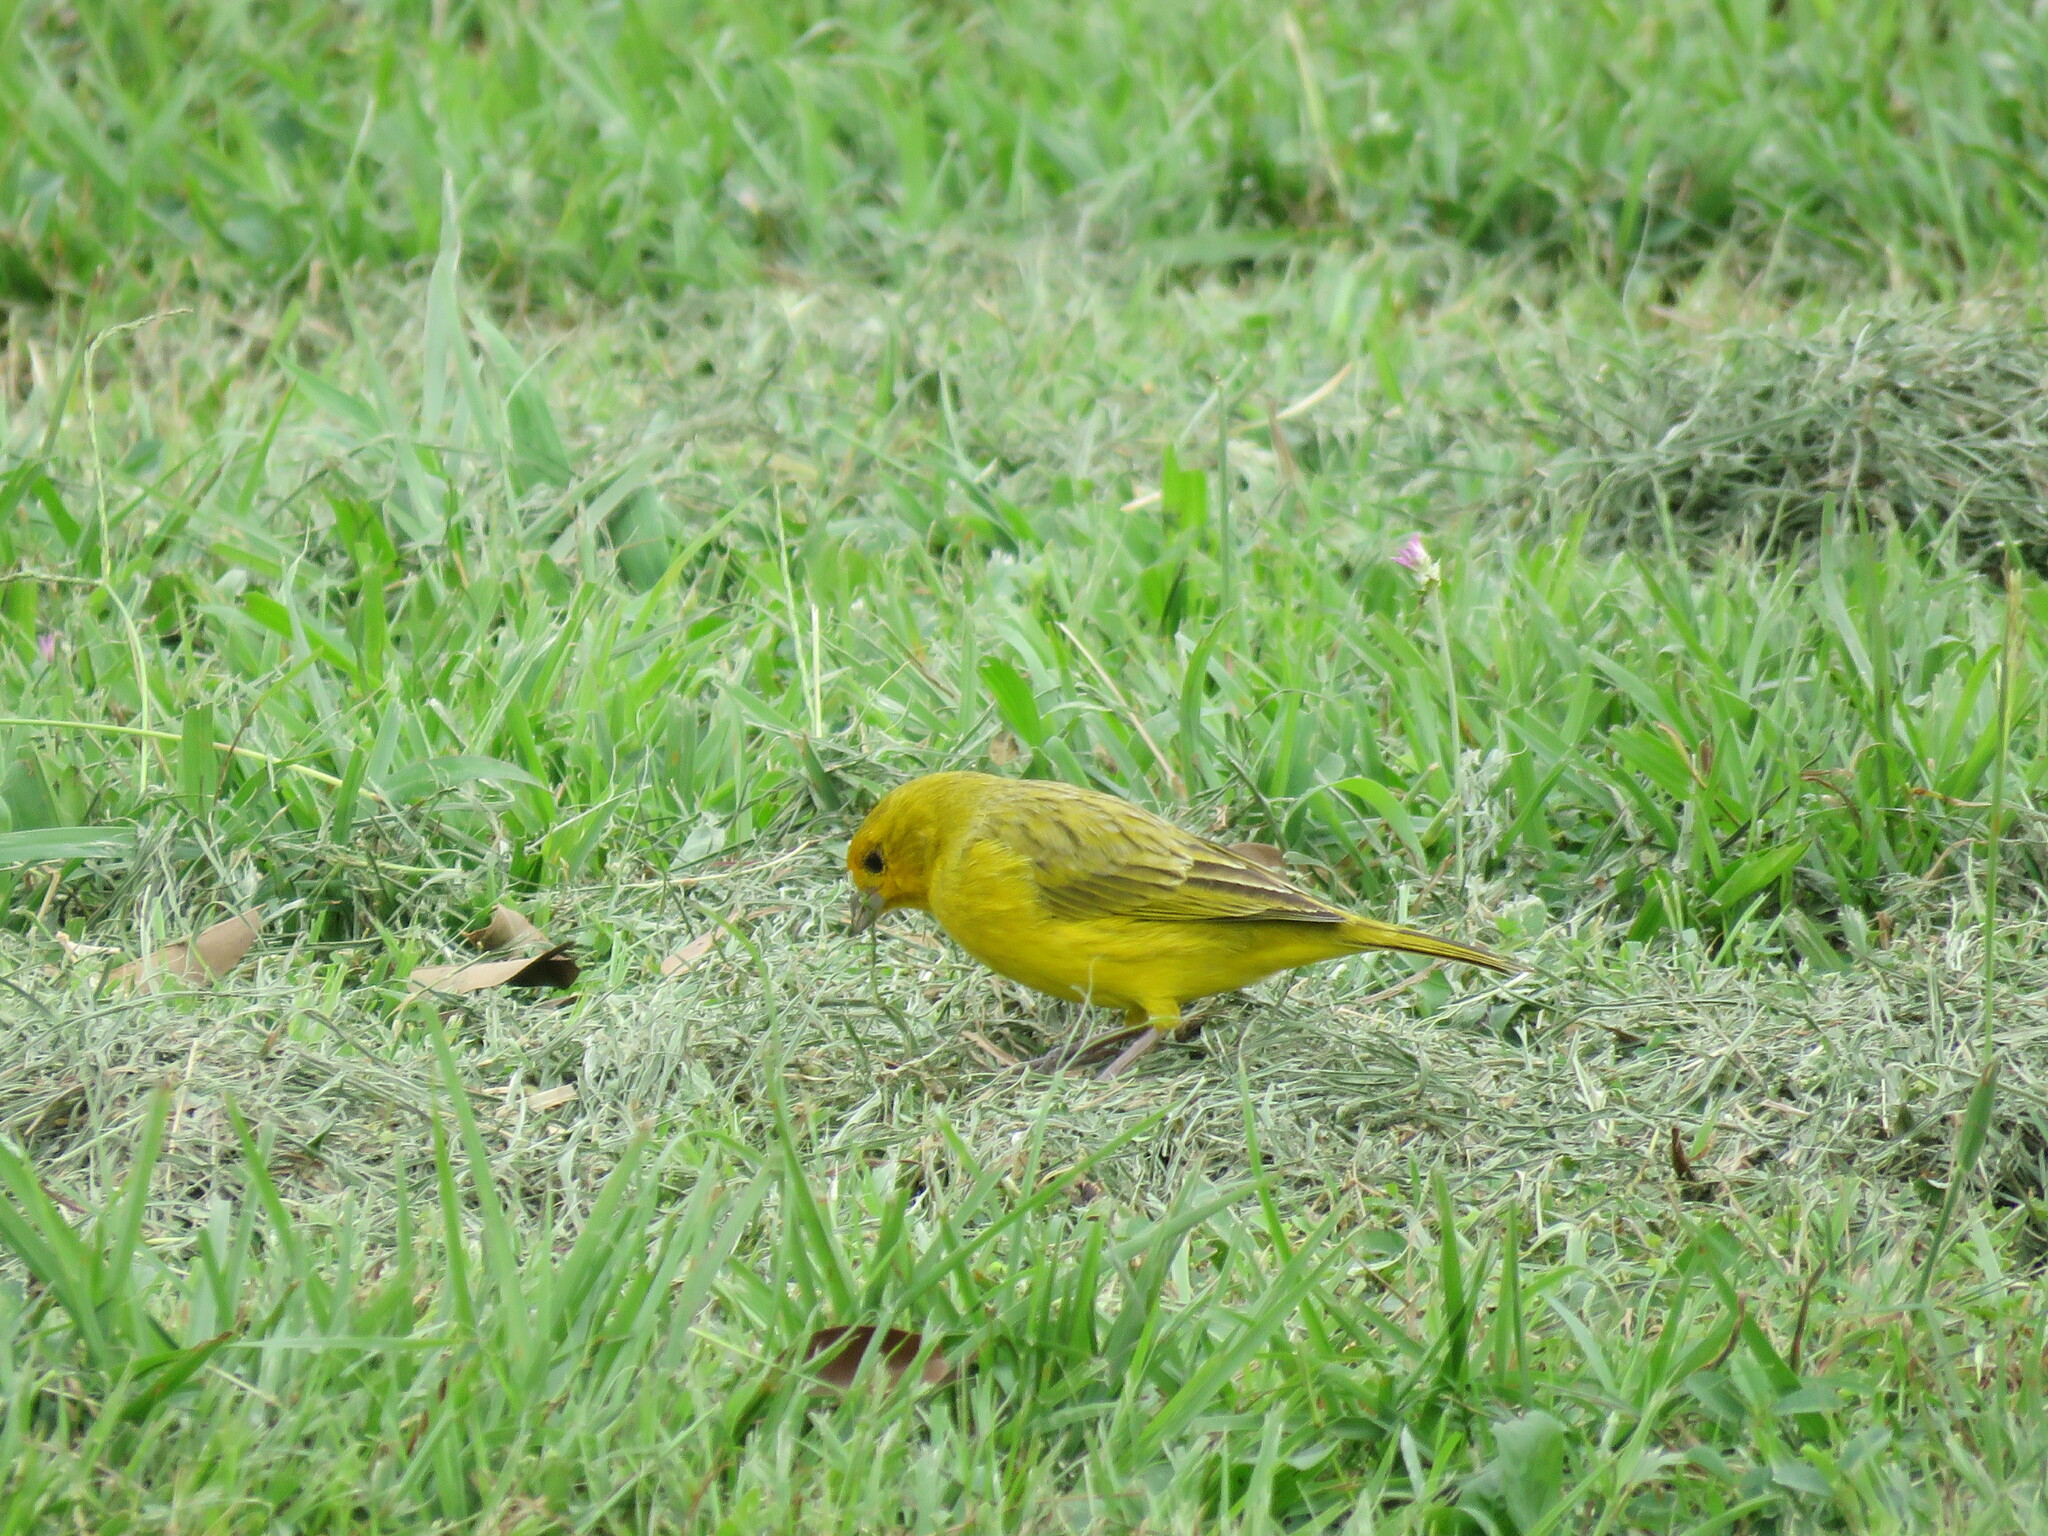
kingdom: Animalia
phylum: Chordata
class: Aves
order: Passeriformes
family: Thraupidae
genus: Sicalis
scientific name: Sicalis flaveola
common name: Saffron finch
